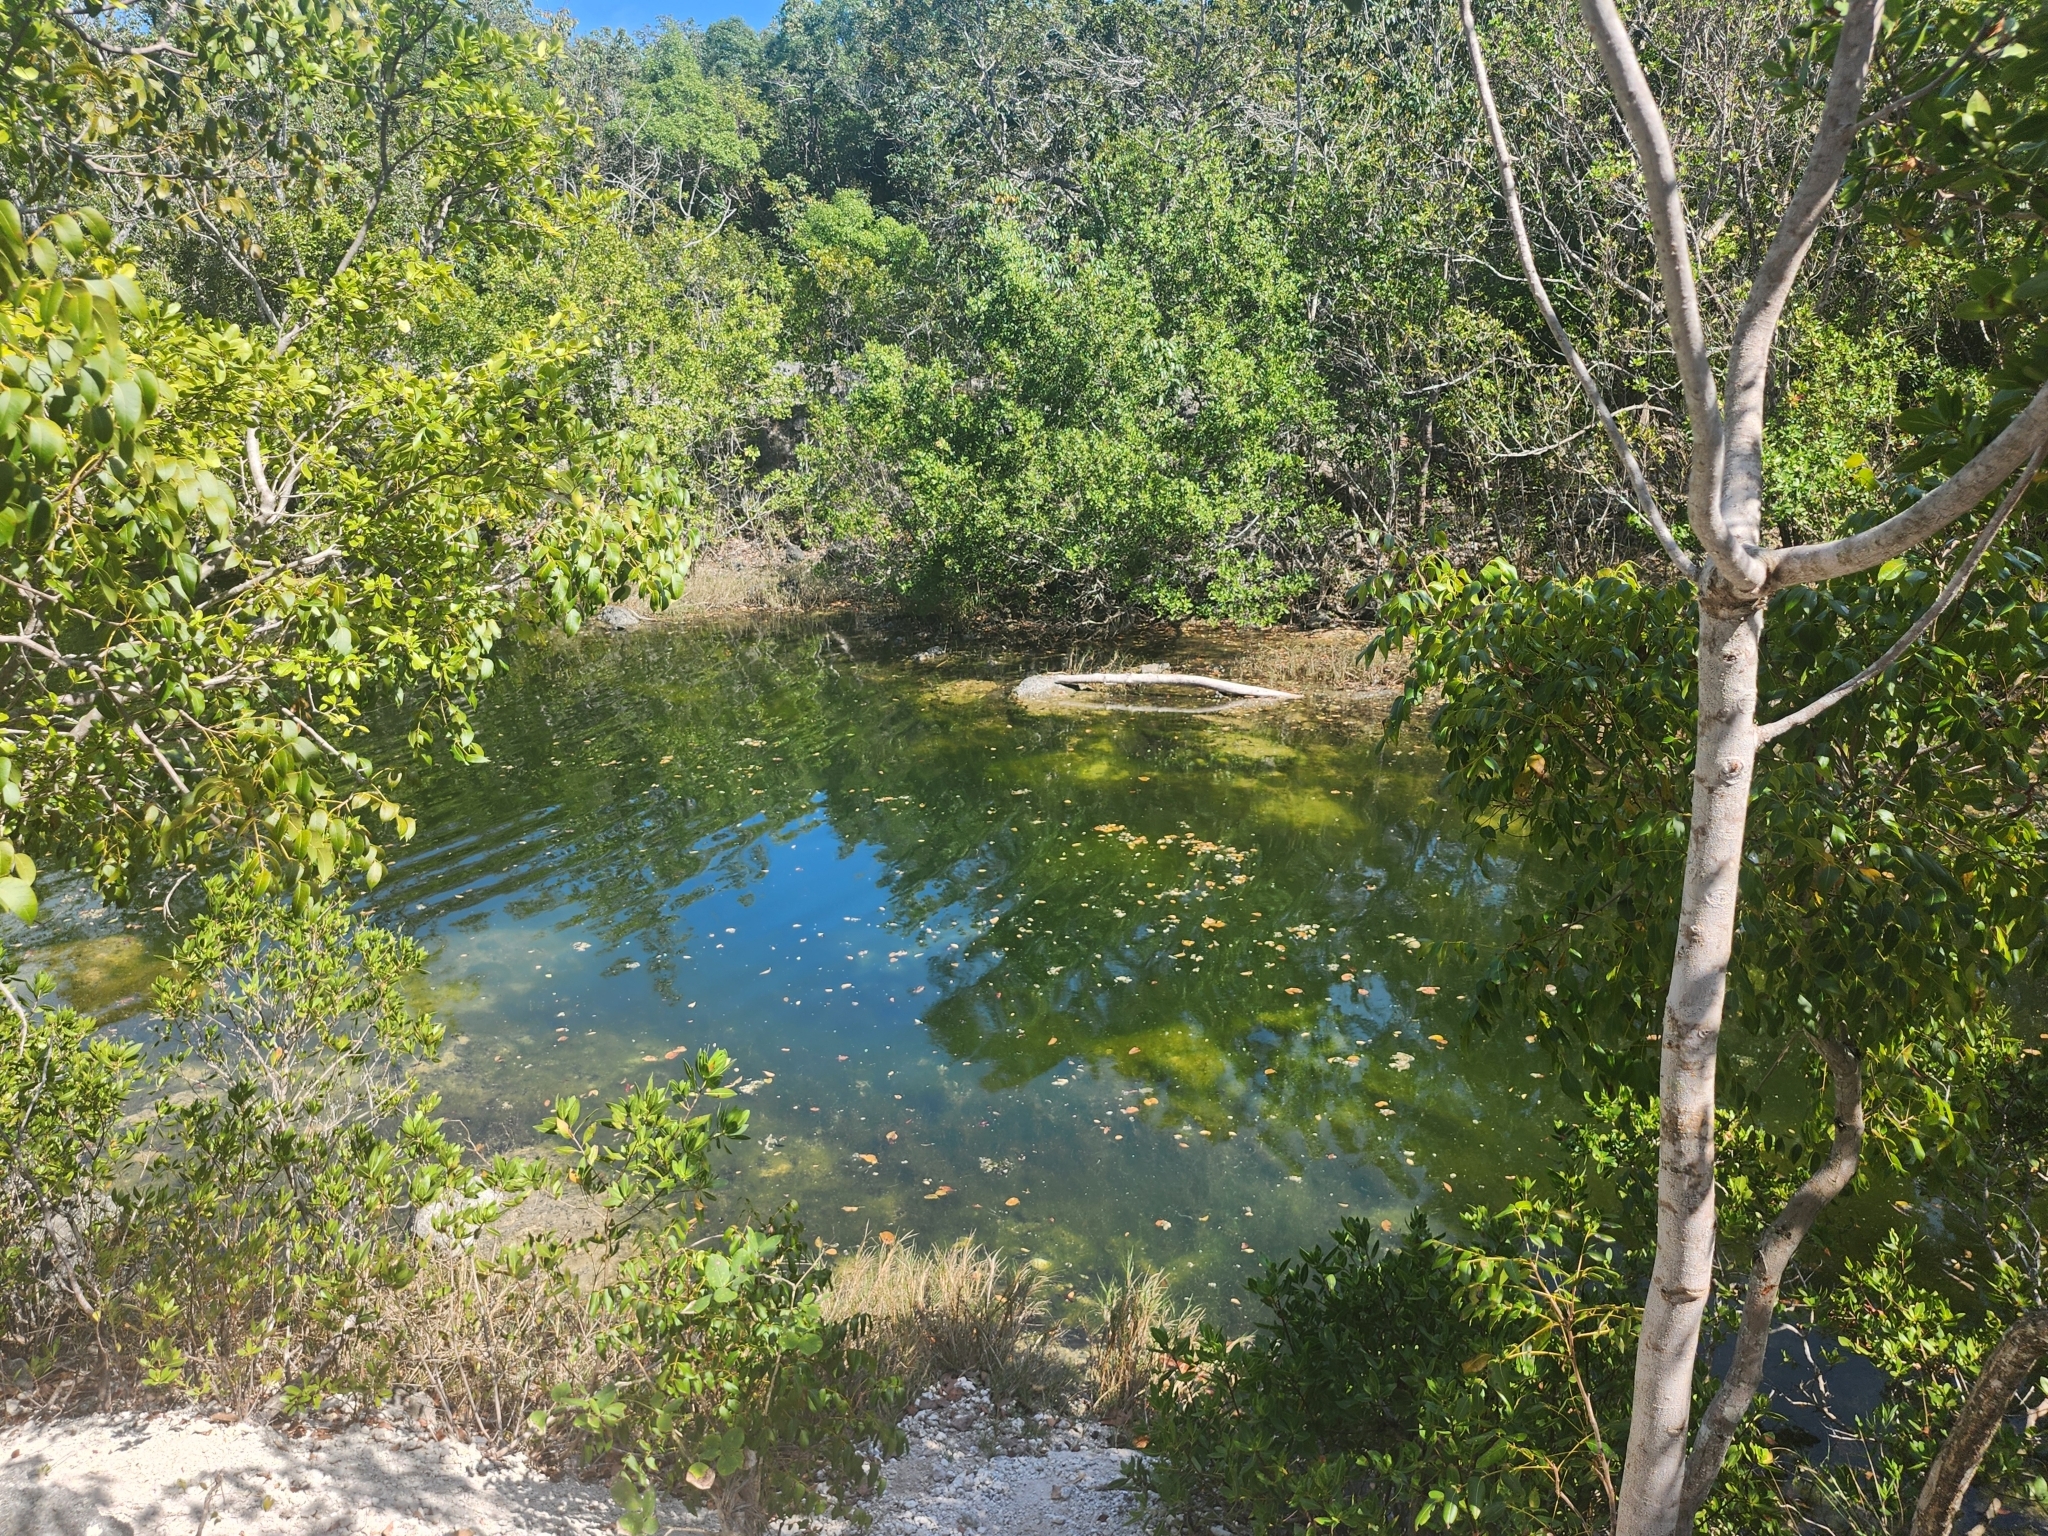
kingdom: Plantae
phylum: Tracheophyta
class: Magnoliopsida
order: Sapindales
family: Meliaceae
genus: Swietenia
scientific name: Swietenia mahagoni
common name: West indian mahogany
